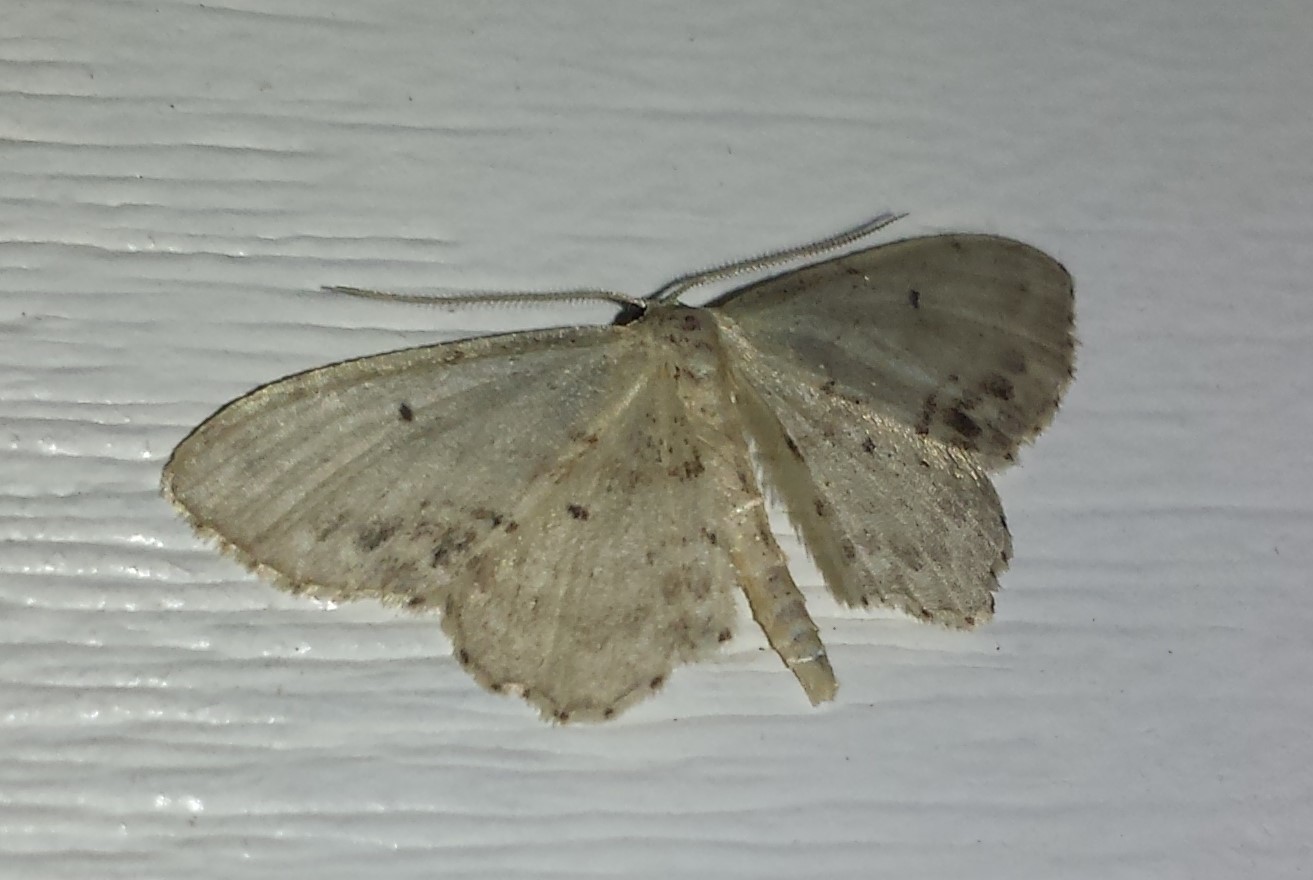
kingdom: Animalia
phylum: Arthropoda
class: Insecta
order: Lepidoptera
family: Geometridae
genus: Idaea
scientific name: Idaea dimidiata
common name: Single-dotted wave
